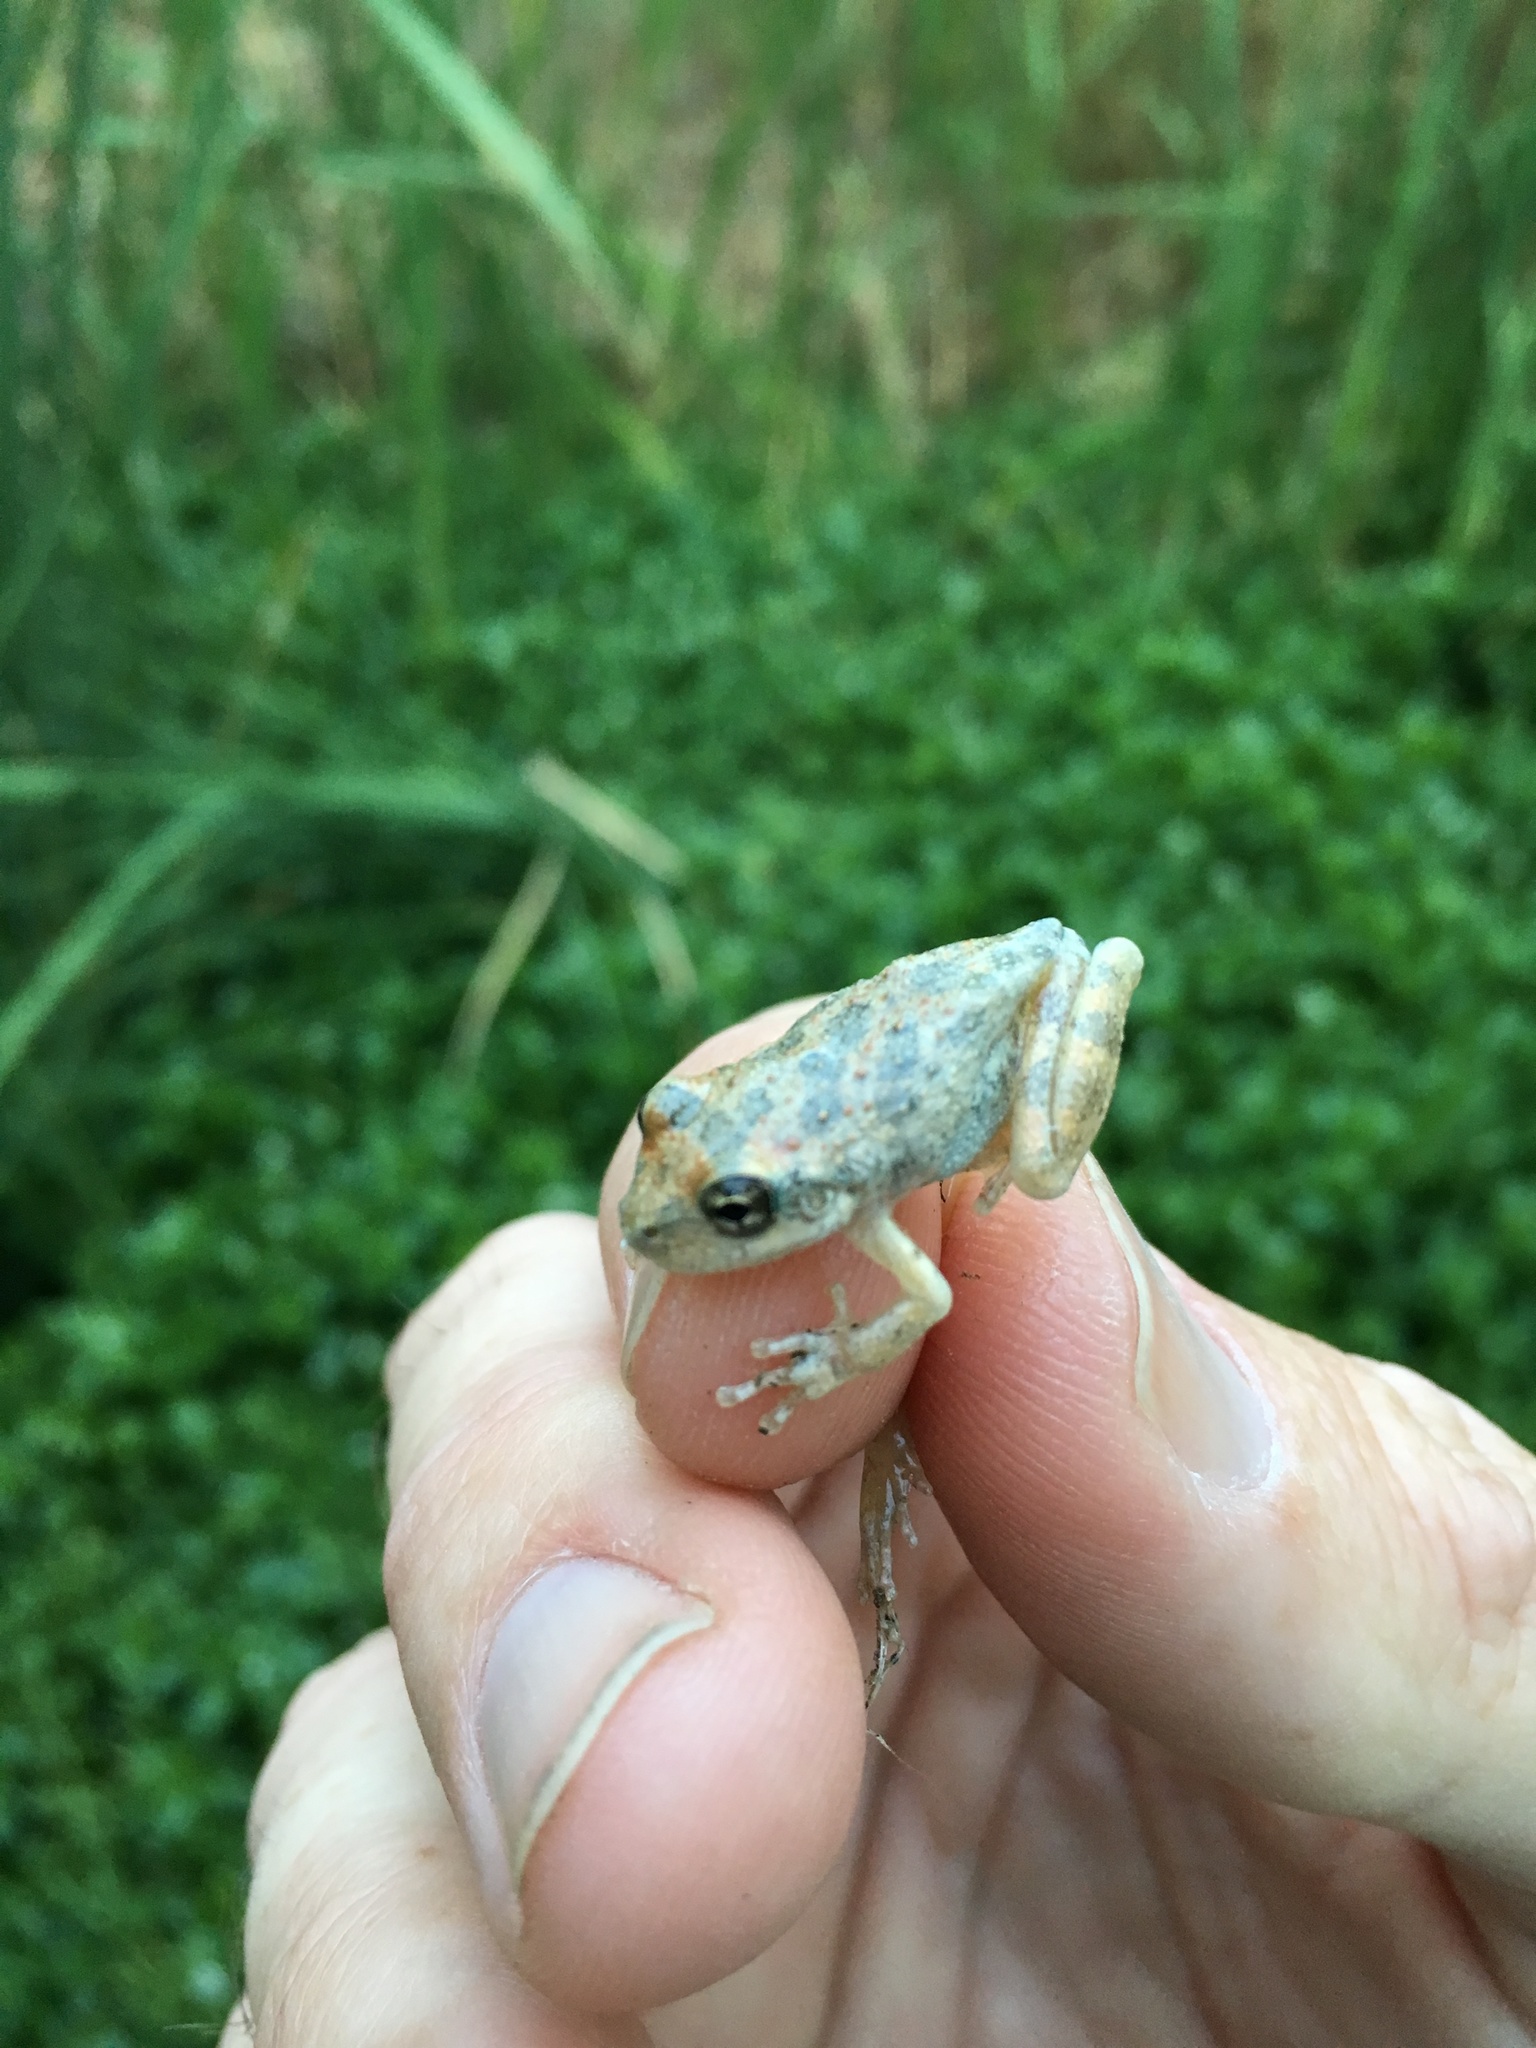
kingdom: Animalia
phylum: Chordata
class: Amphibia
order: Anura
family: Hylidae
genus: Pseudacris
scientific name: Pseudacris cadaverina
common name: California chorus frog
